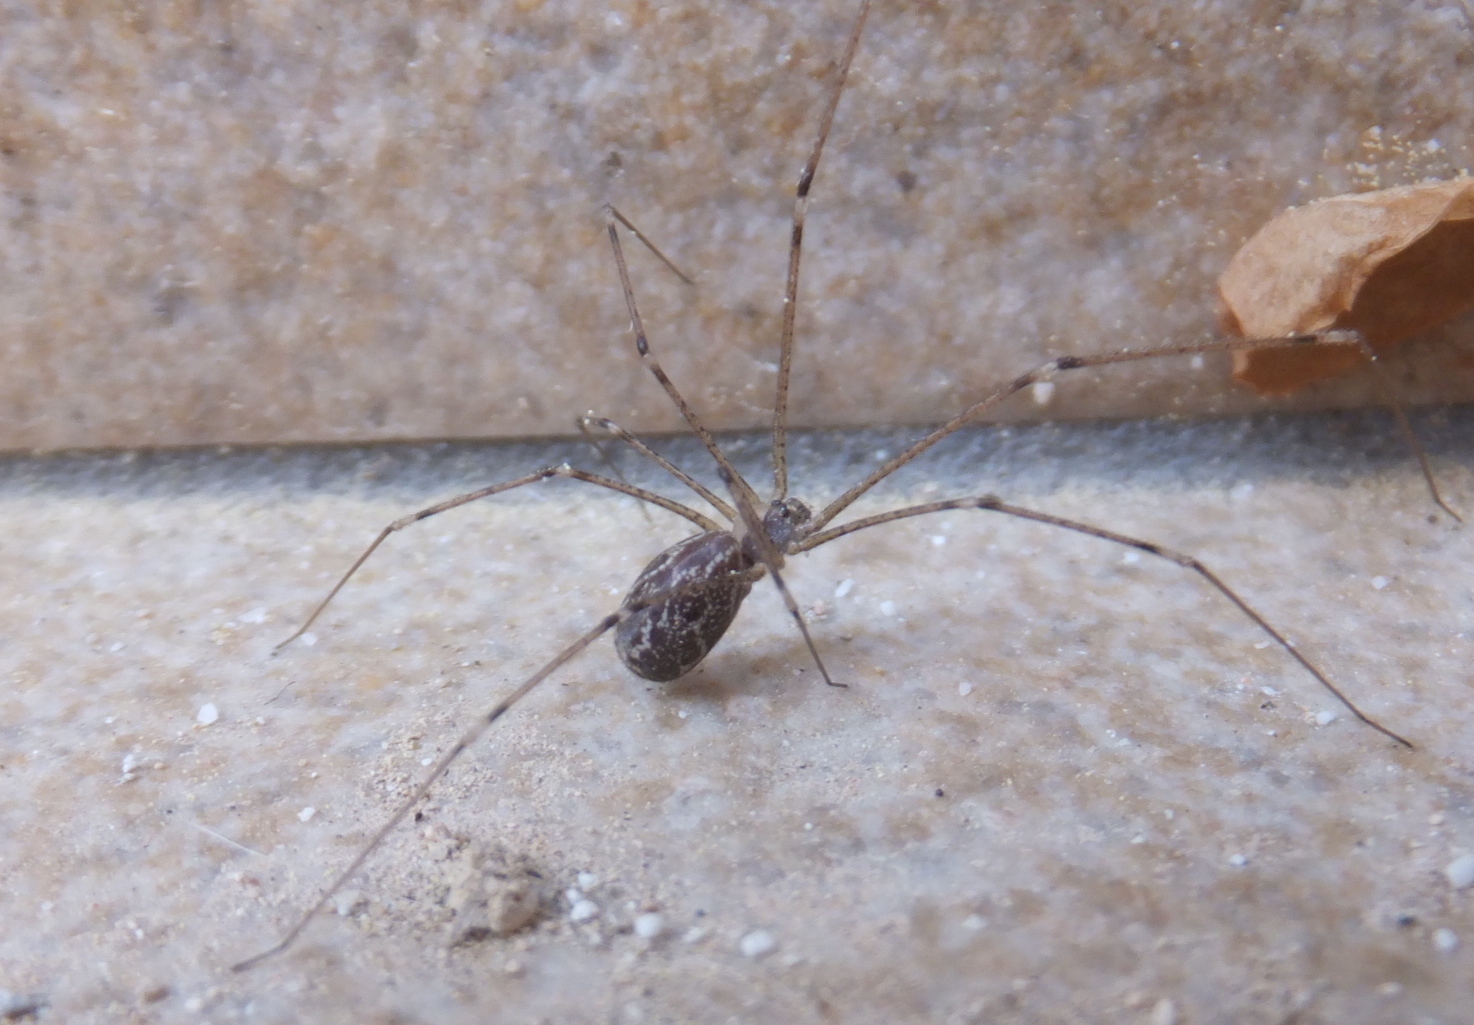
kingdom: Animalia
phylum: Arthropoda
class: Arachnida
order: Araneae
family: Pholcidae
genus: Holocnemus
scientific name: Holocnemus pluchei
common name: Marbled cellar spider
